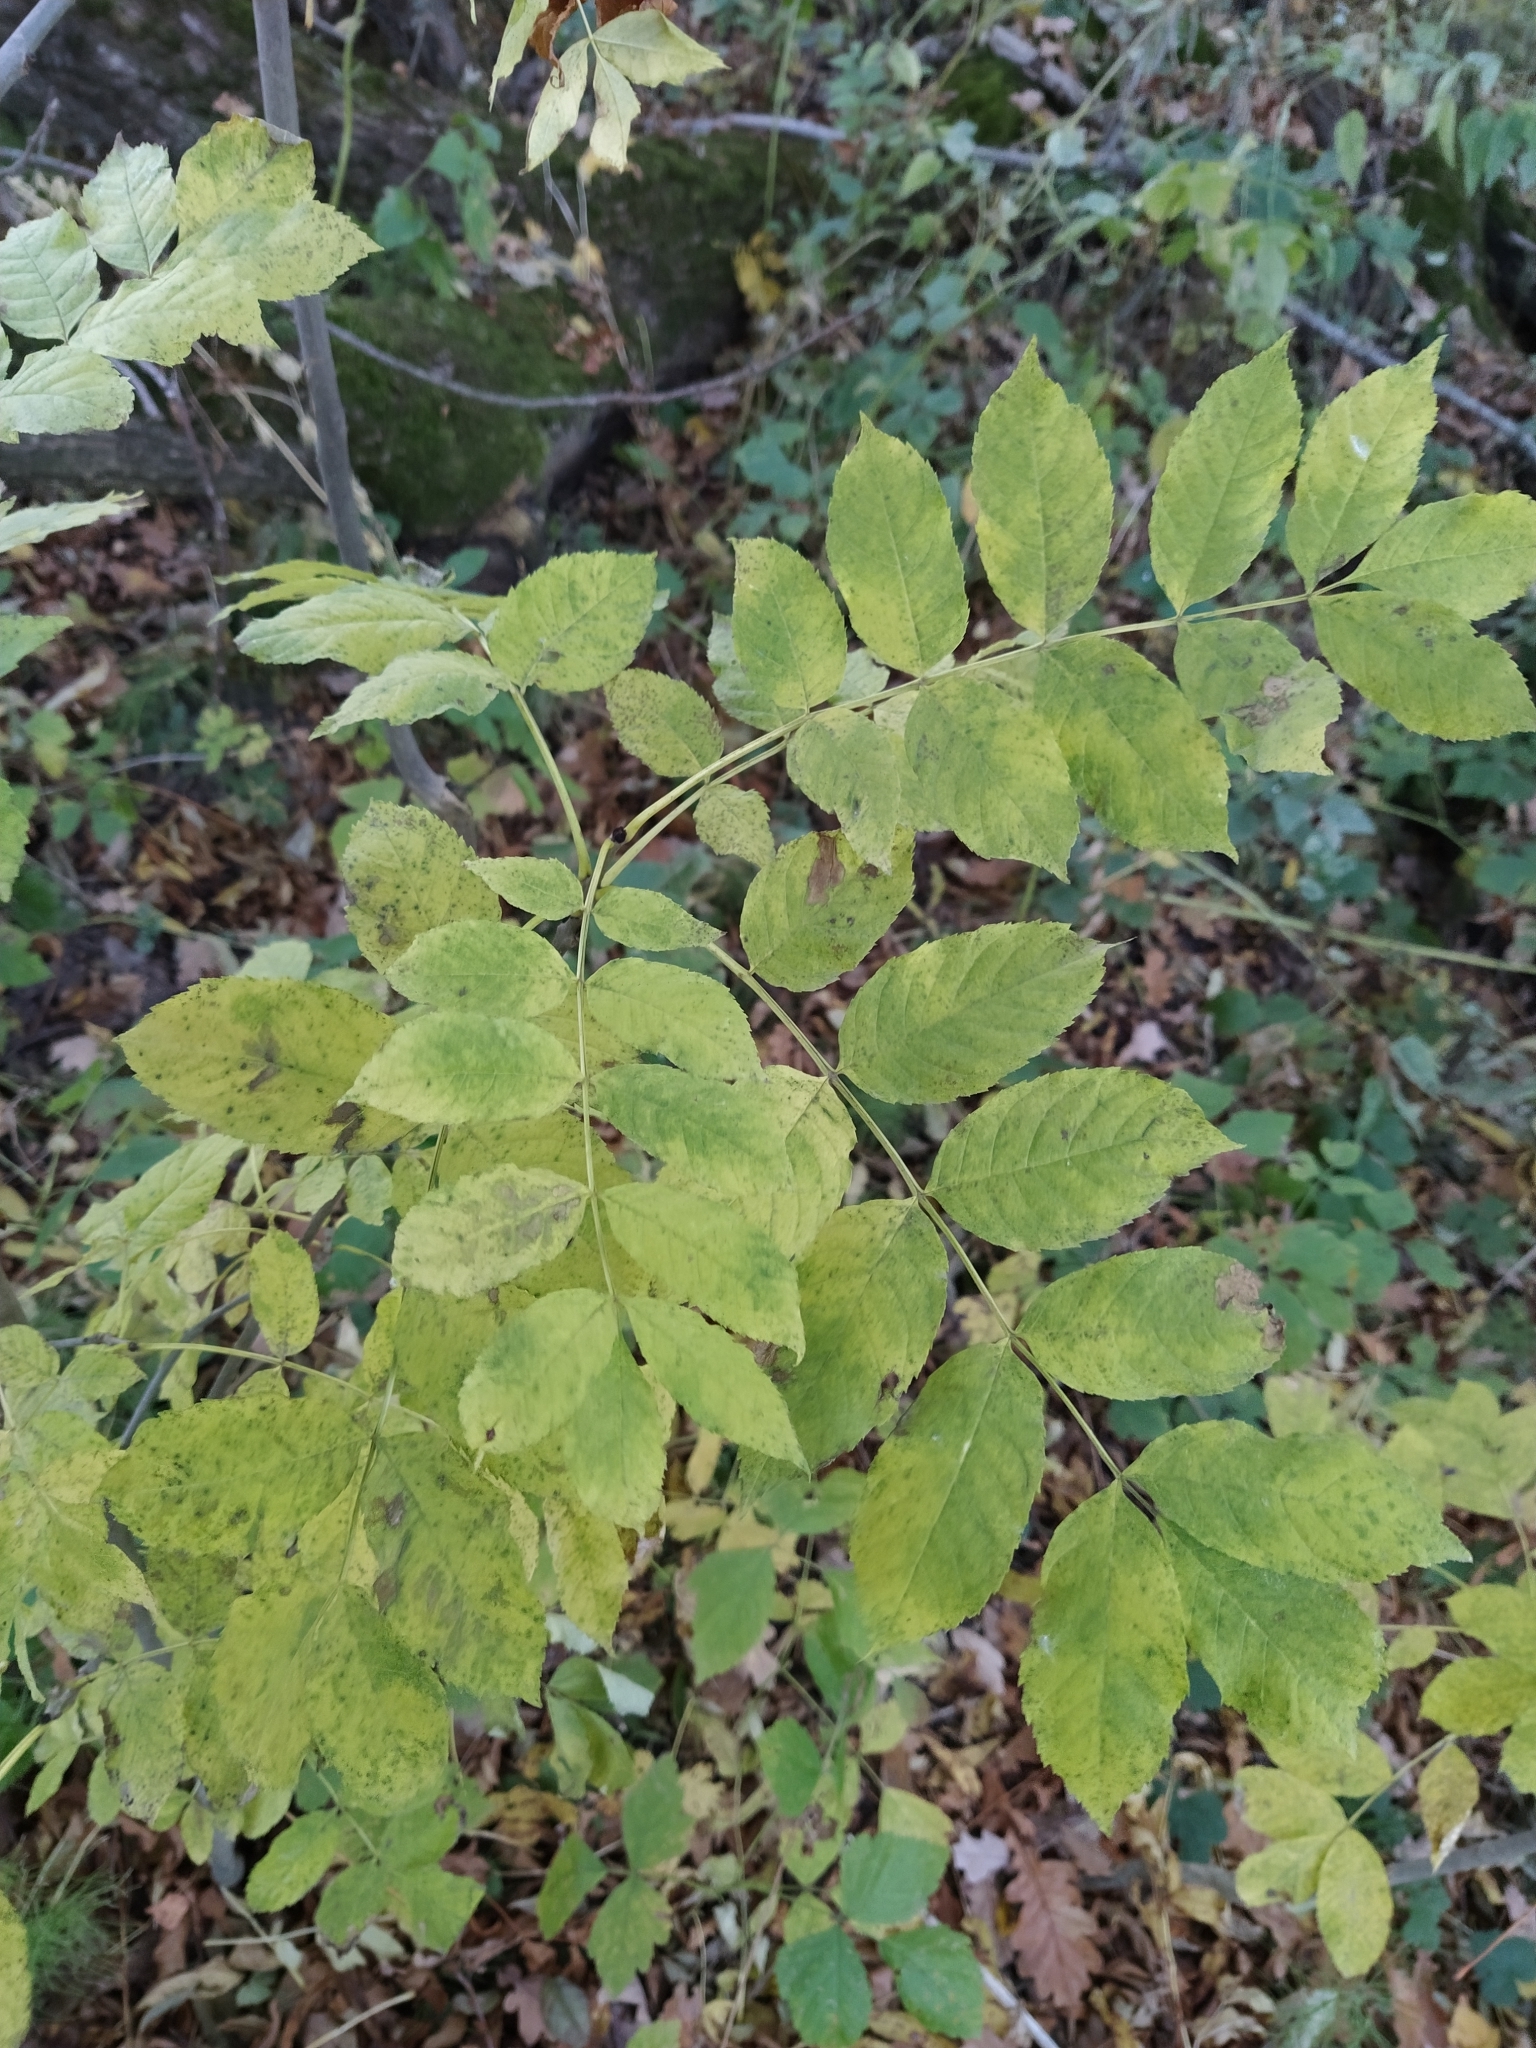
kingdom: Plantae
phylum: Tracheophyta
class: Magnoliopsida
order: Lamiales
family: Oleaceae
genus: Fraxinus
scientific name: Fraxinus excelsior
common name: European ash
